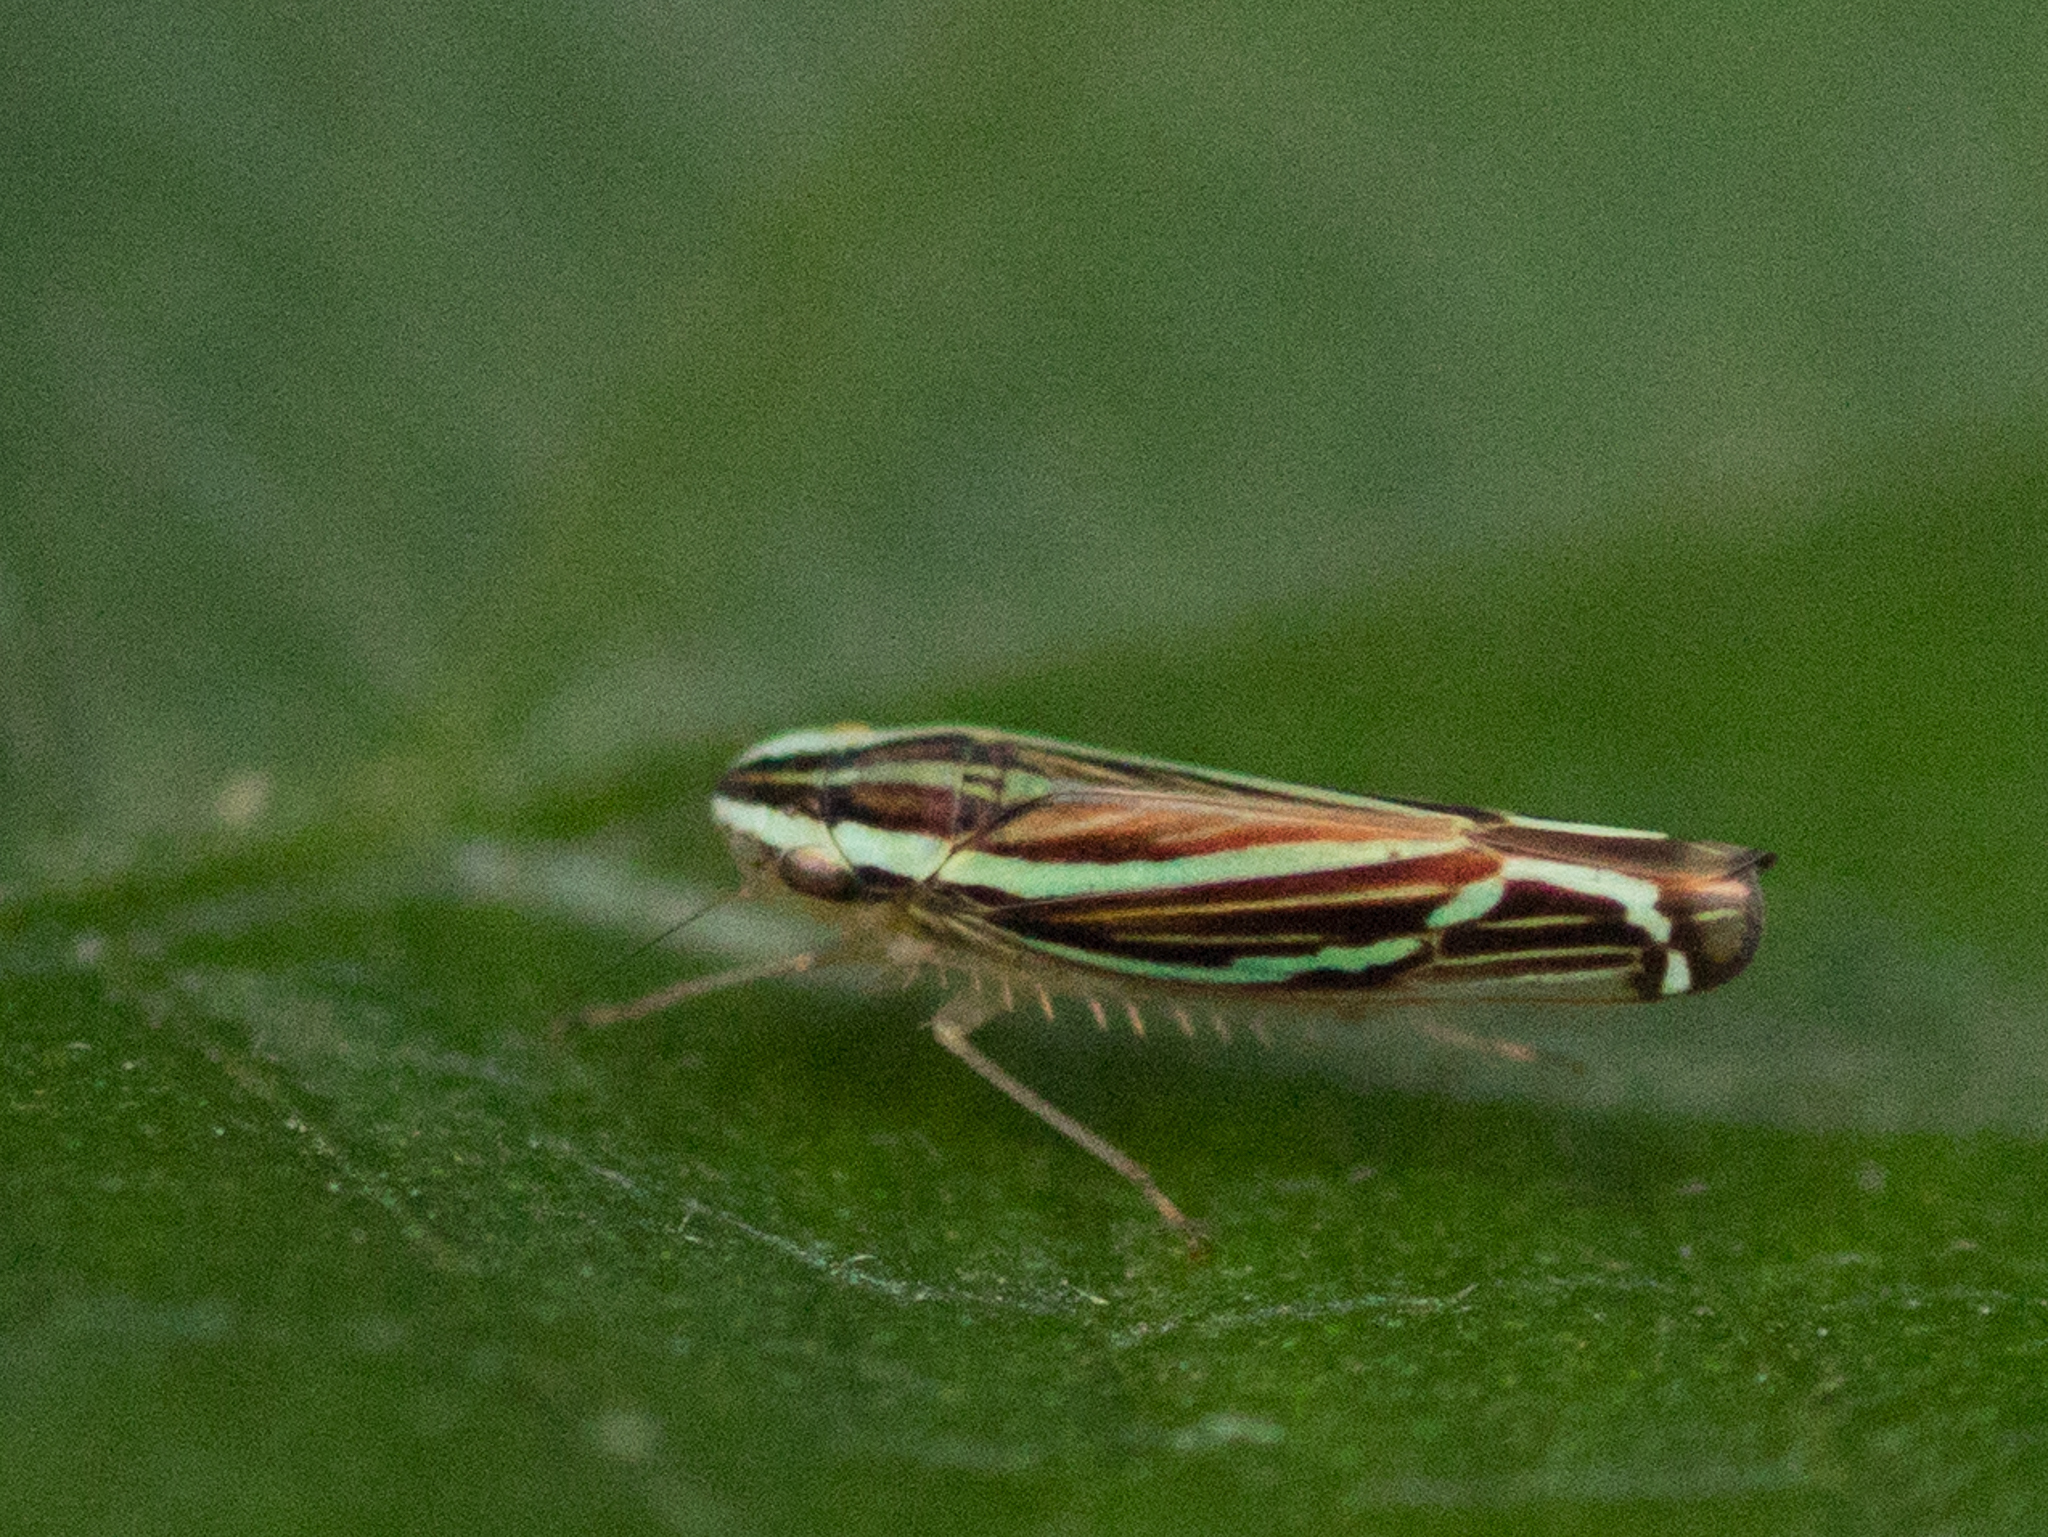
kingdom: Animalia
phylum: Arthropoda
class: Insecta
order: Hemiptera
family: Cicadellidae
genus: Sibovia
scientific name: Sibovia sagata
